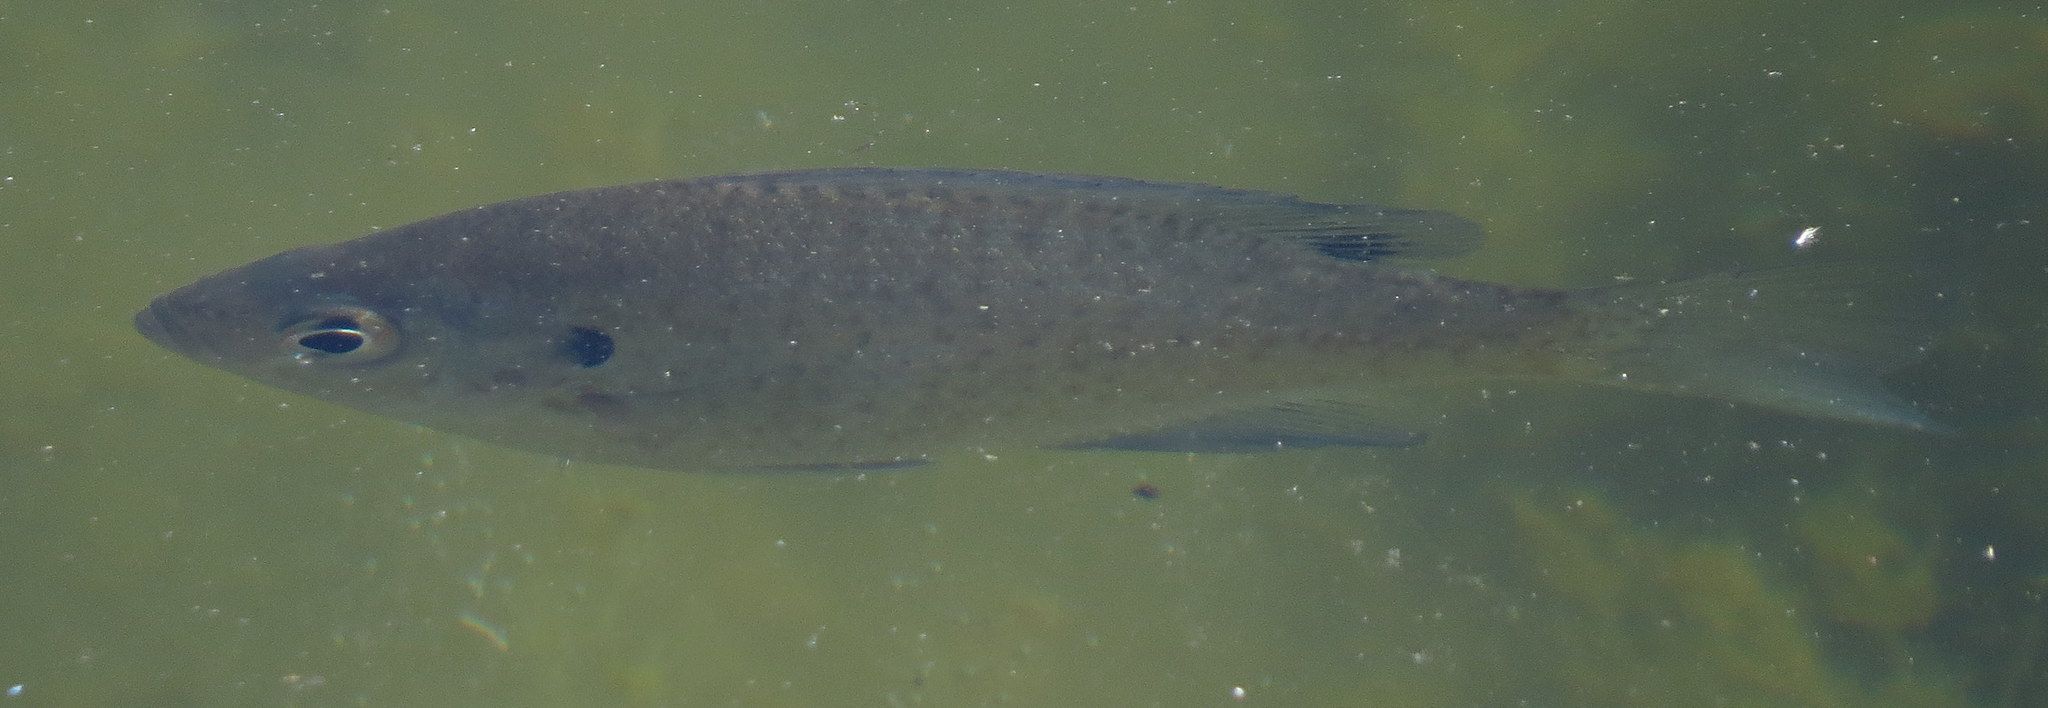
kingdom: Animalia
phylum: Chordata
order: Perciformes
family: Centrarchidae
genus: Lepomis
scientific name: Lepomis macrochirus
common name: Bluegill
